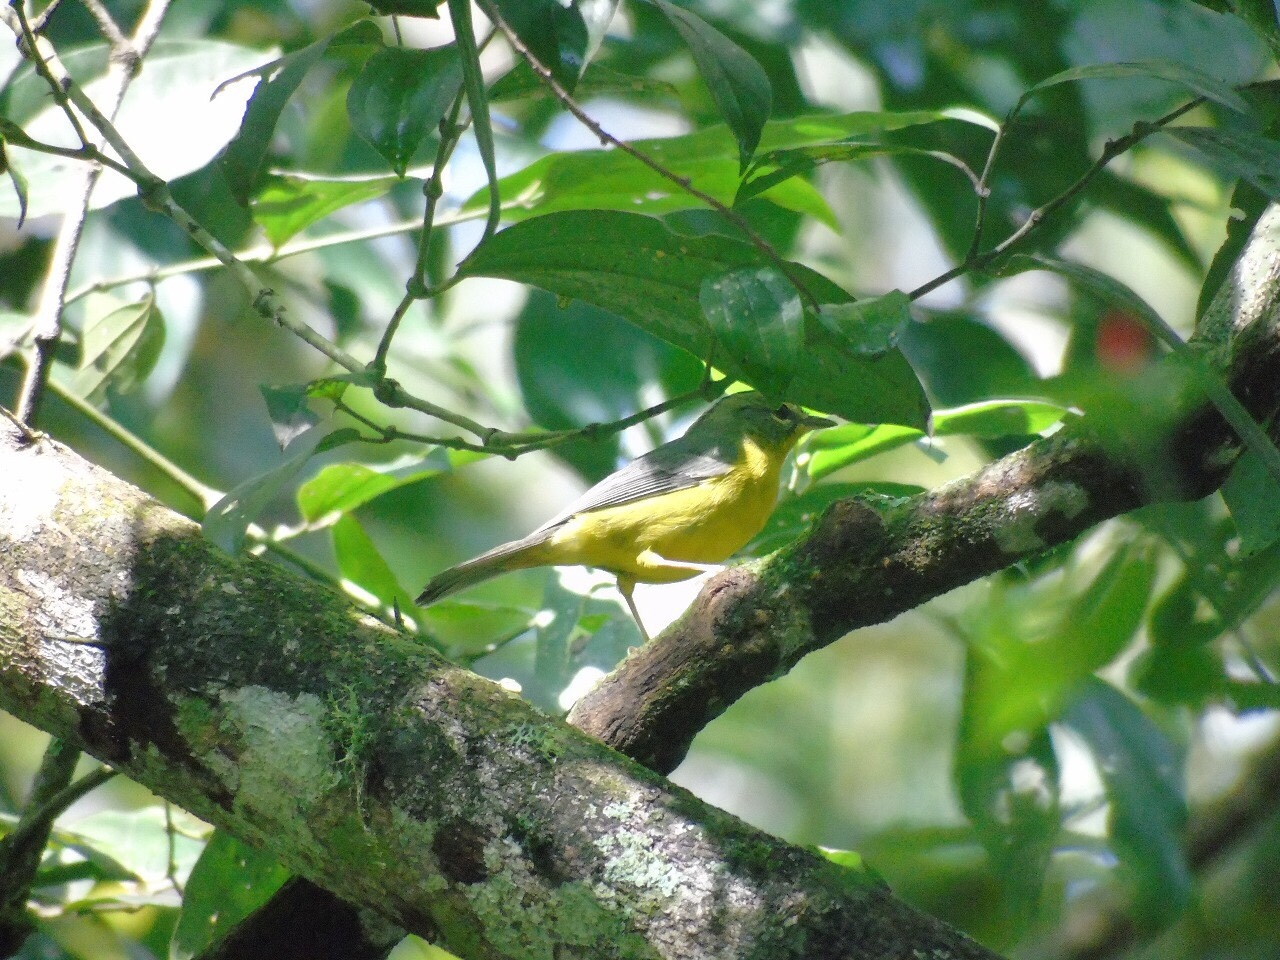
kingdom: Animalia
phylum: Chordata
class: Aves
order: Passeriformes
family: Parulidae
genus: Basileuterus
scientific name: Basileuterus culicivorus
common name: Golden-crowned warbler
